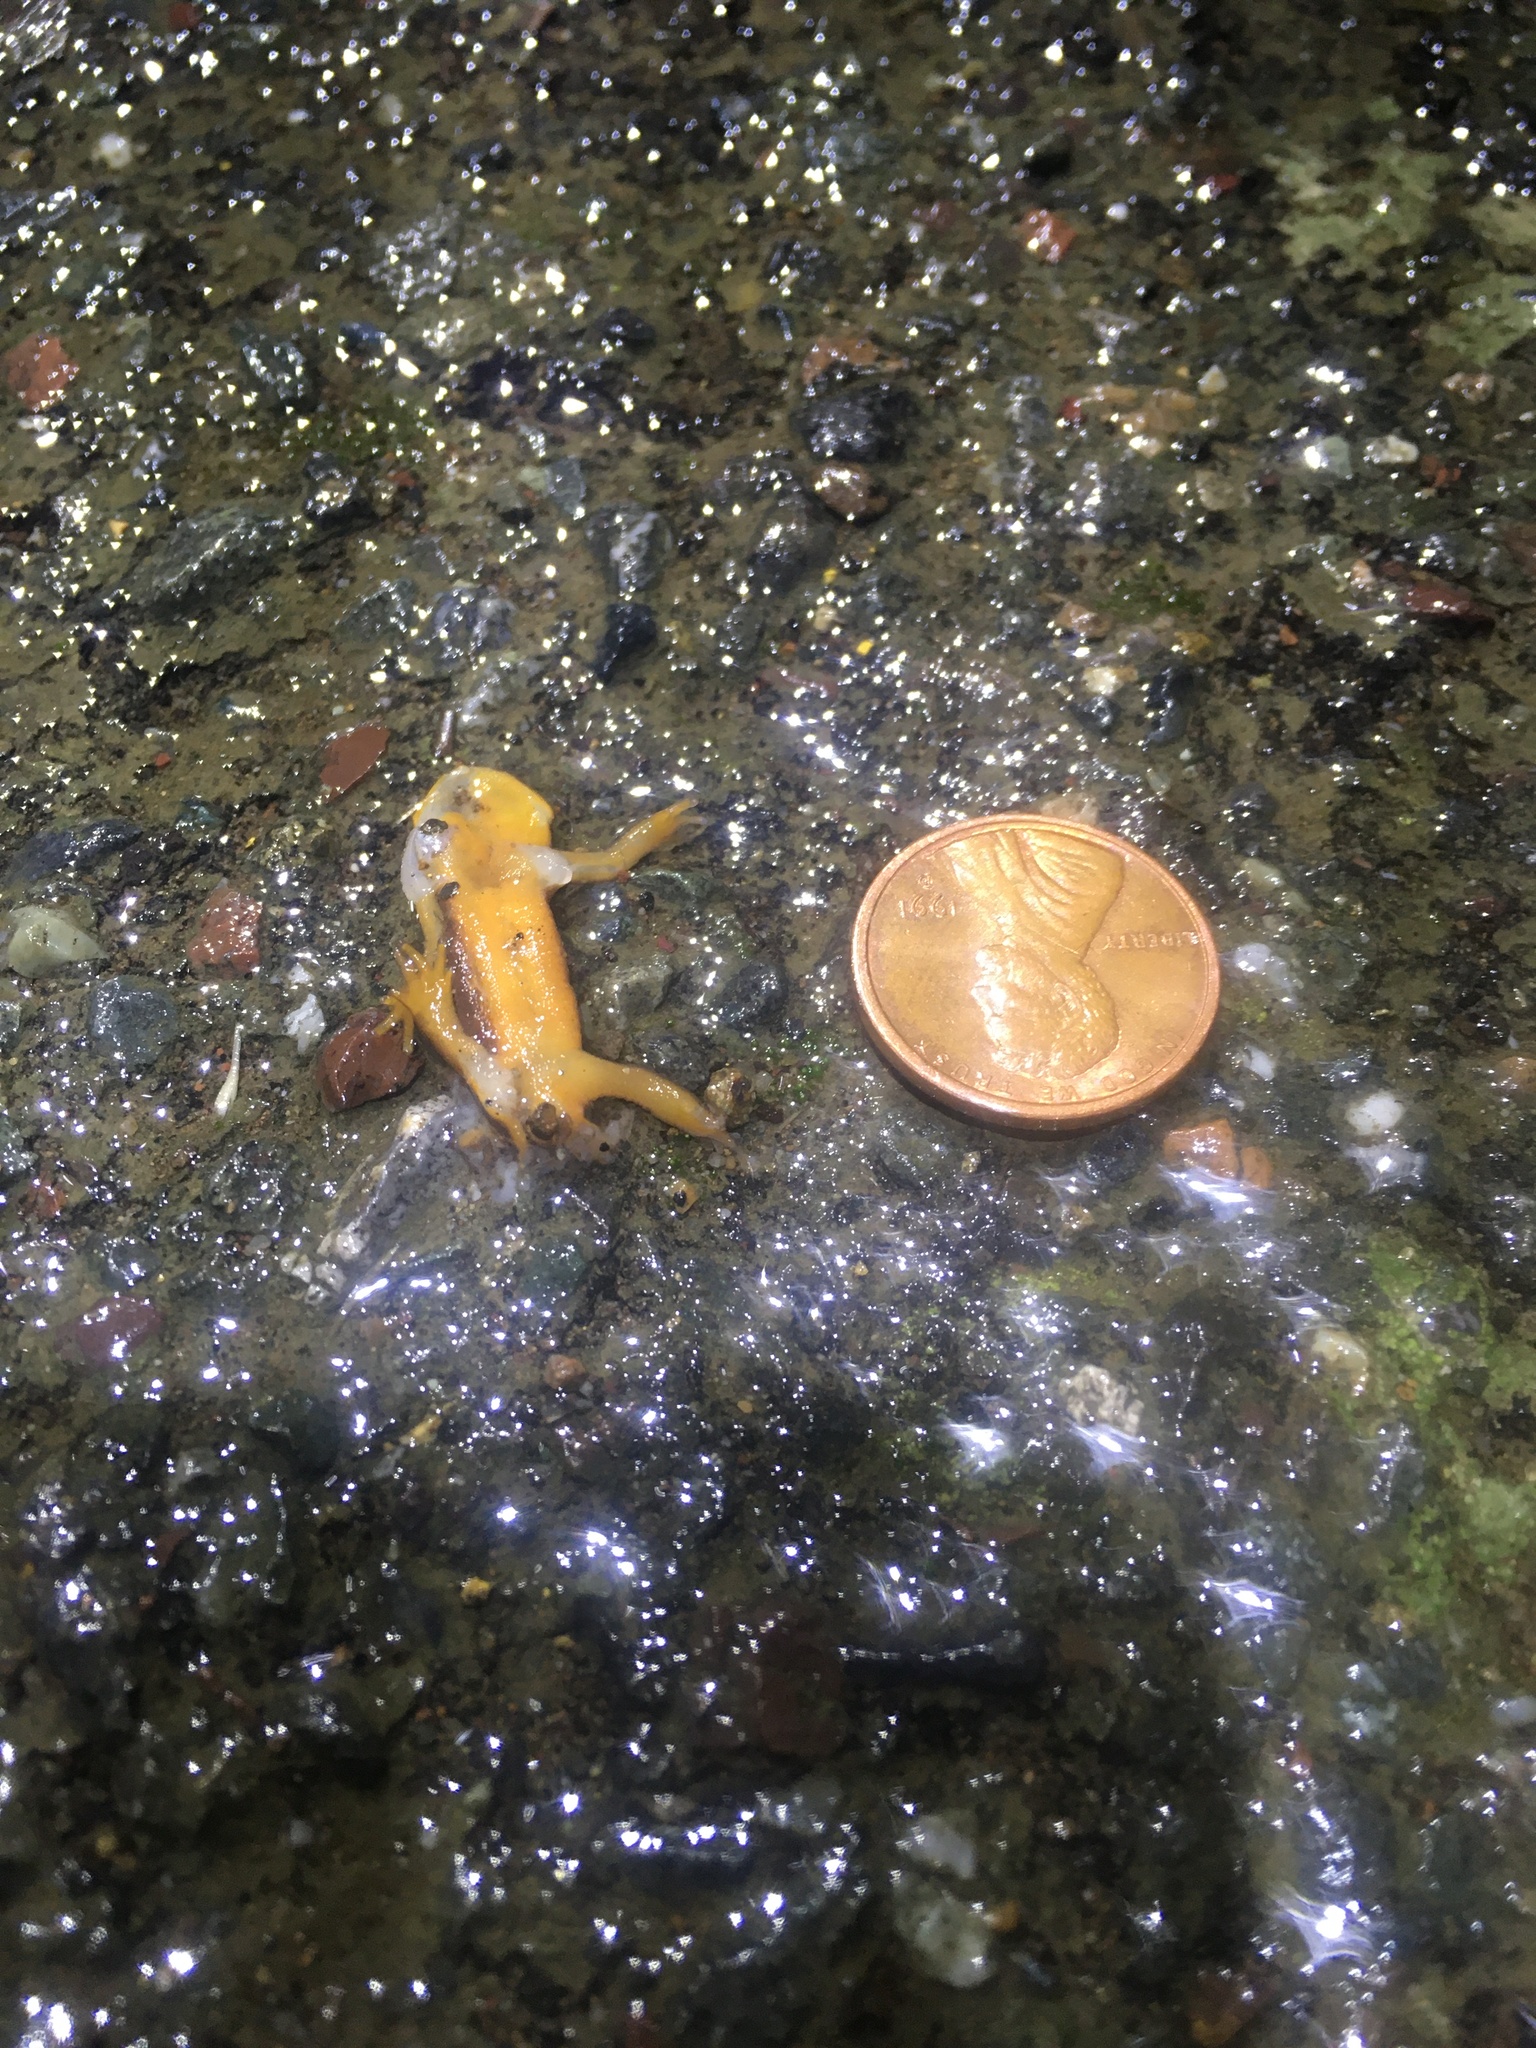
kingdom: Animalia
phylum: Chordata
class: Amphibia
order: Caudata
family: Salamandridae
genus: Taricha
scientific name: Taricha
